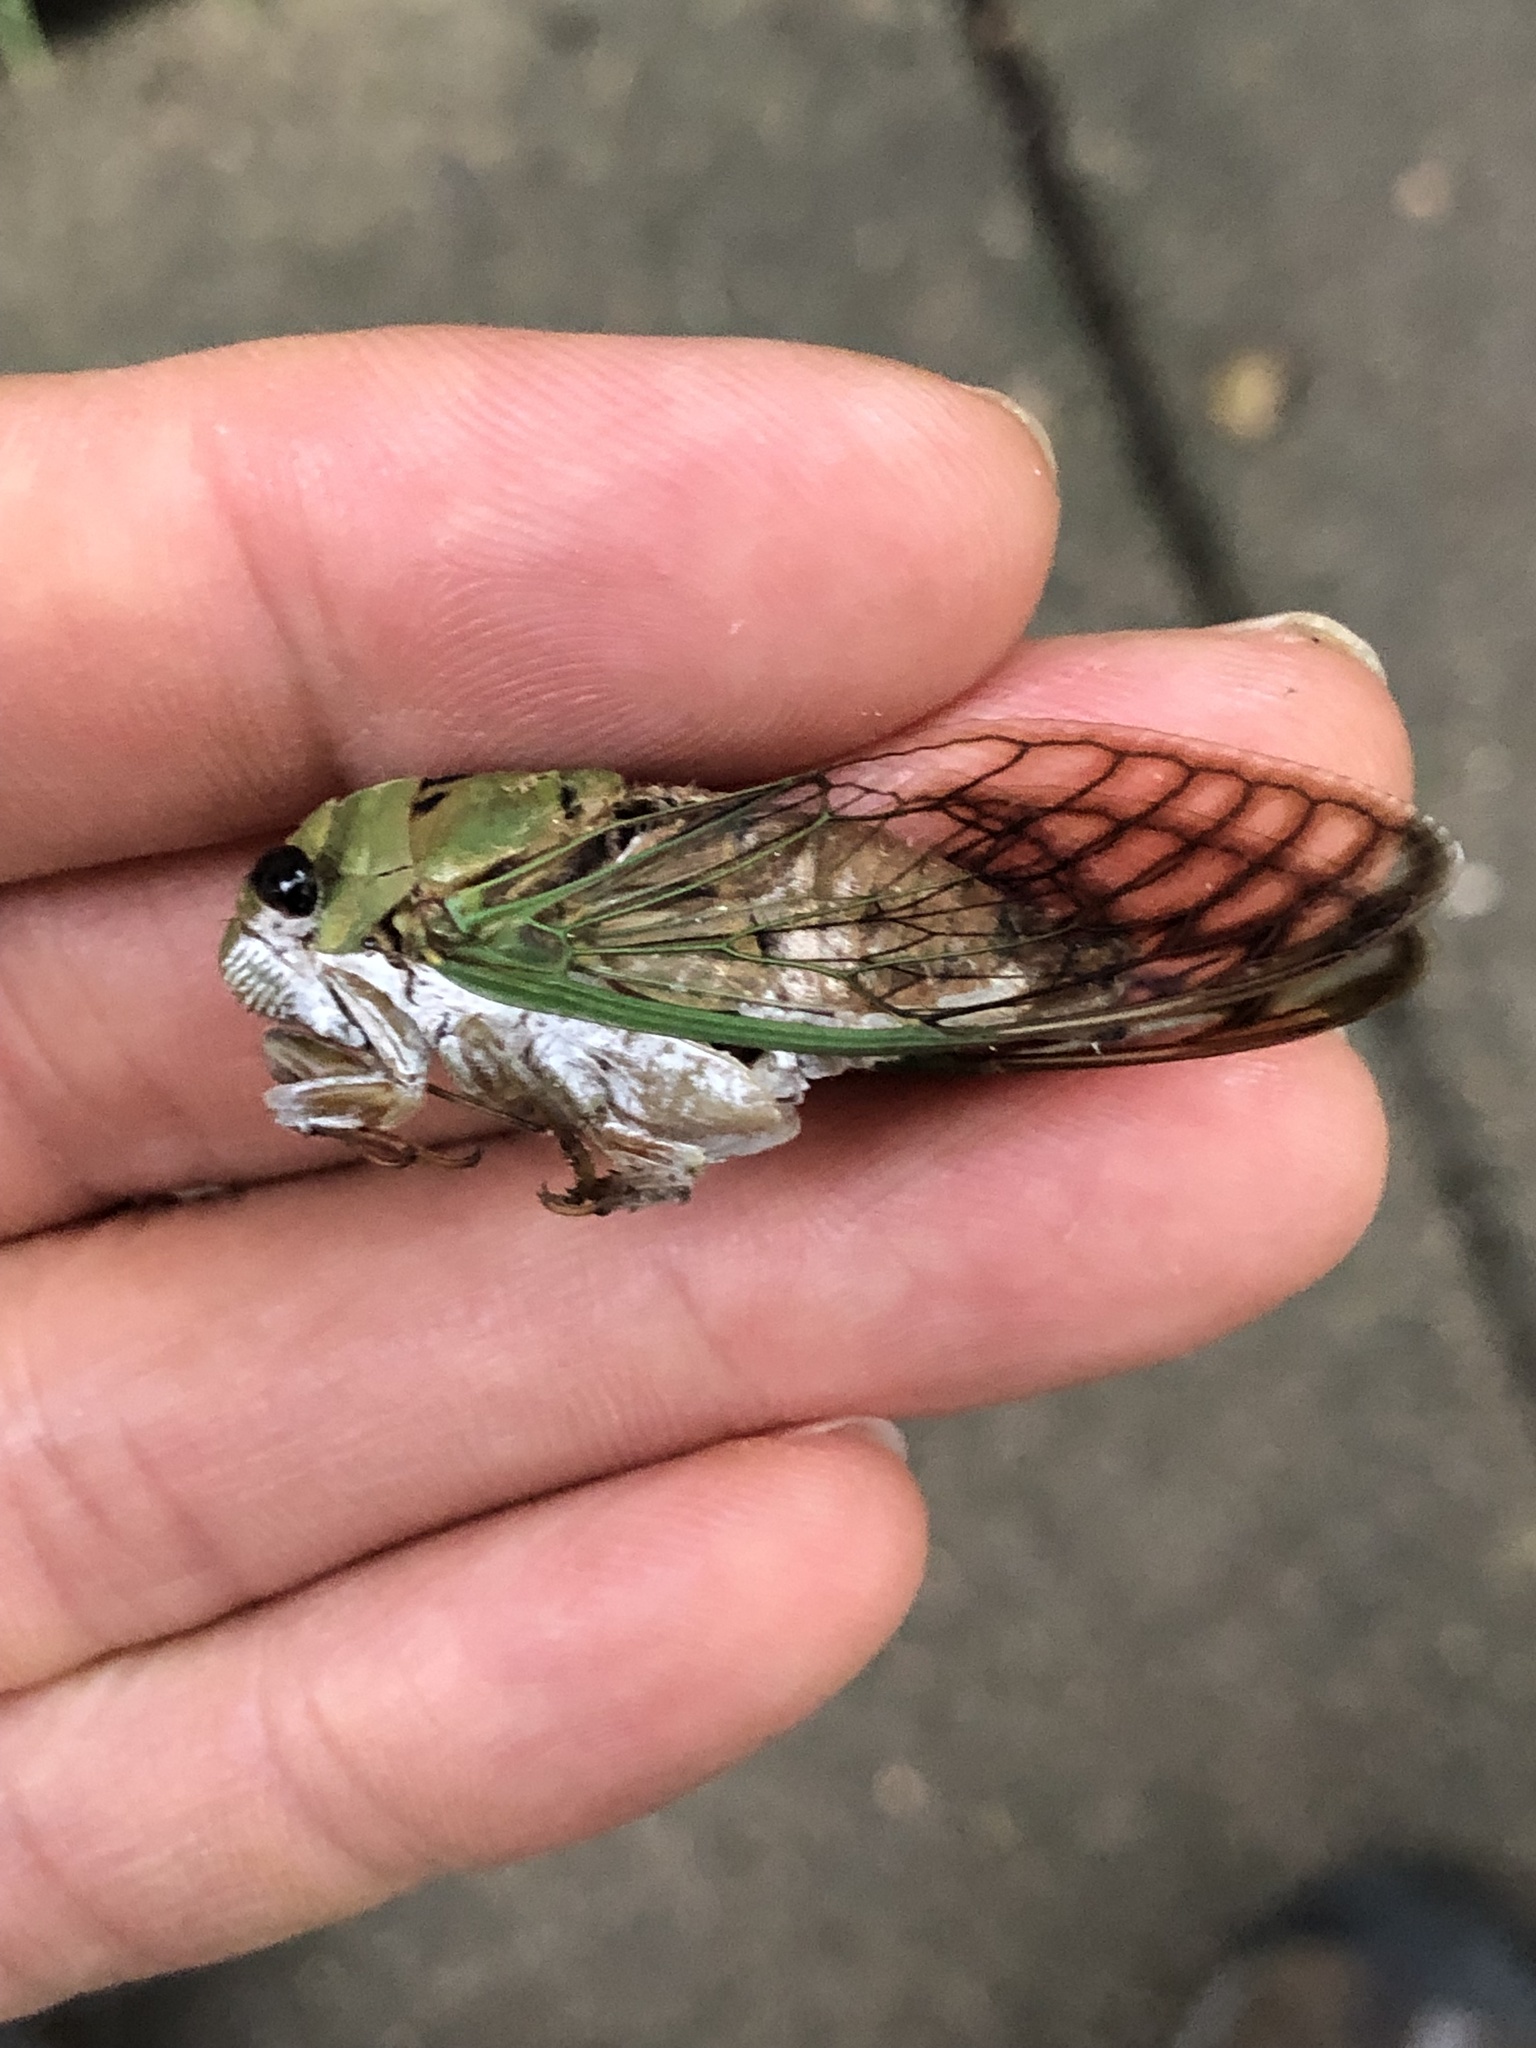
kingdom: Animalia
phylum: Arthropoda
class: Insecta
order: Hemiptera
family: Cicadidae
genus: Neotibicen
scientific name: Neotibicen superbus
